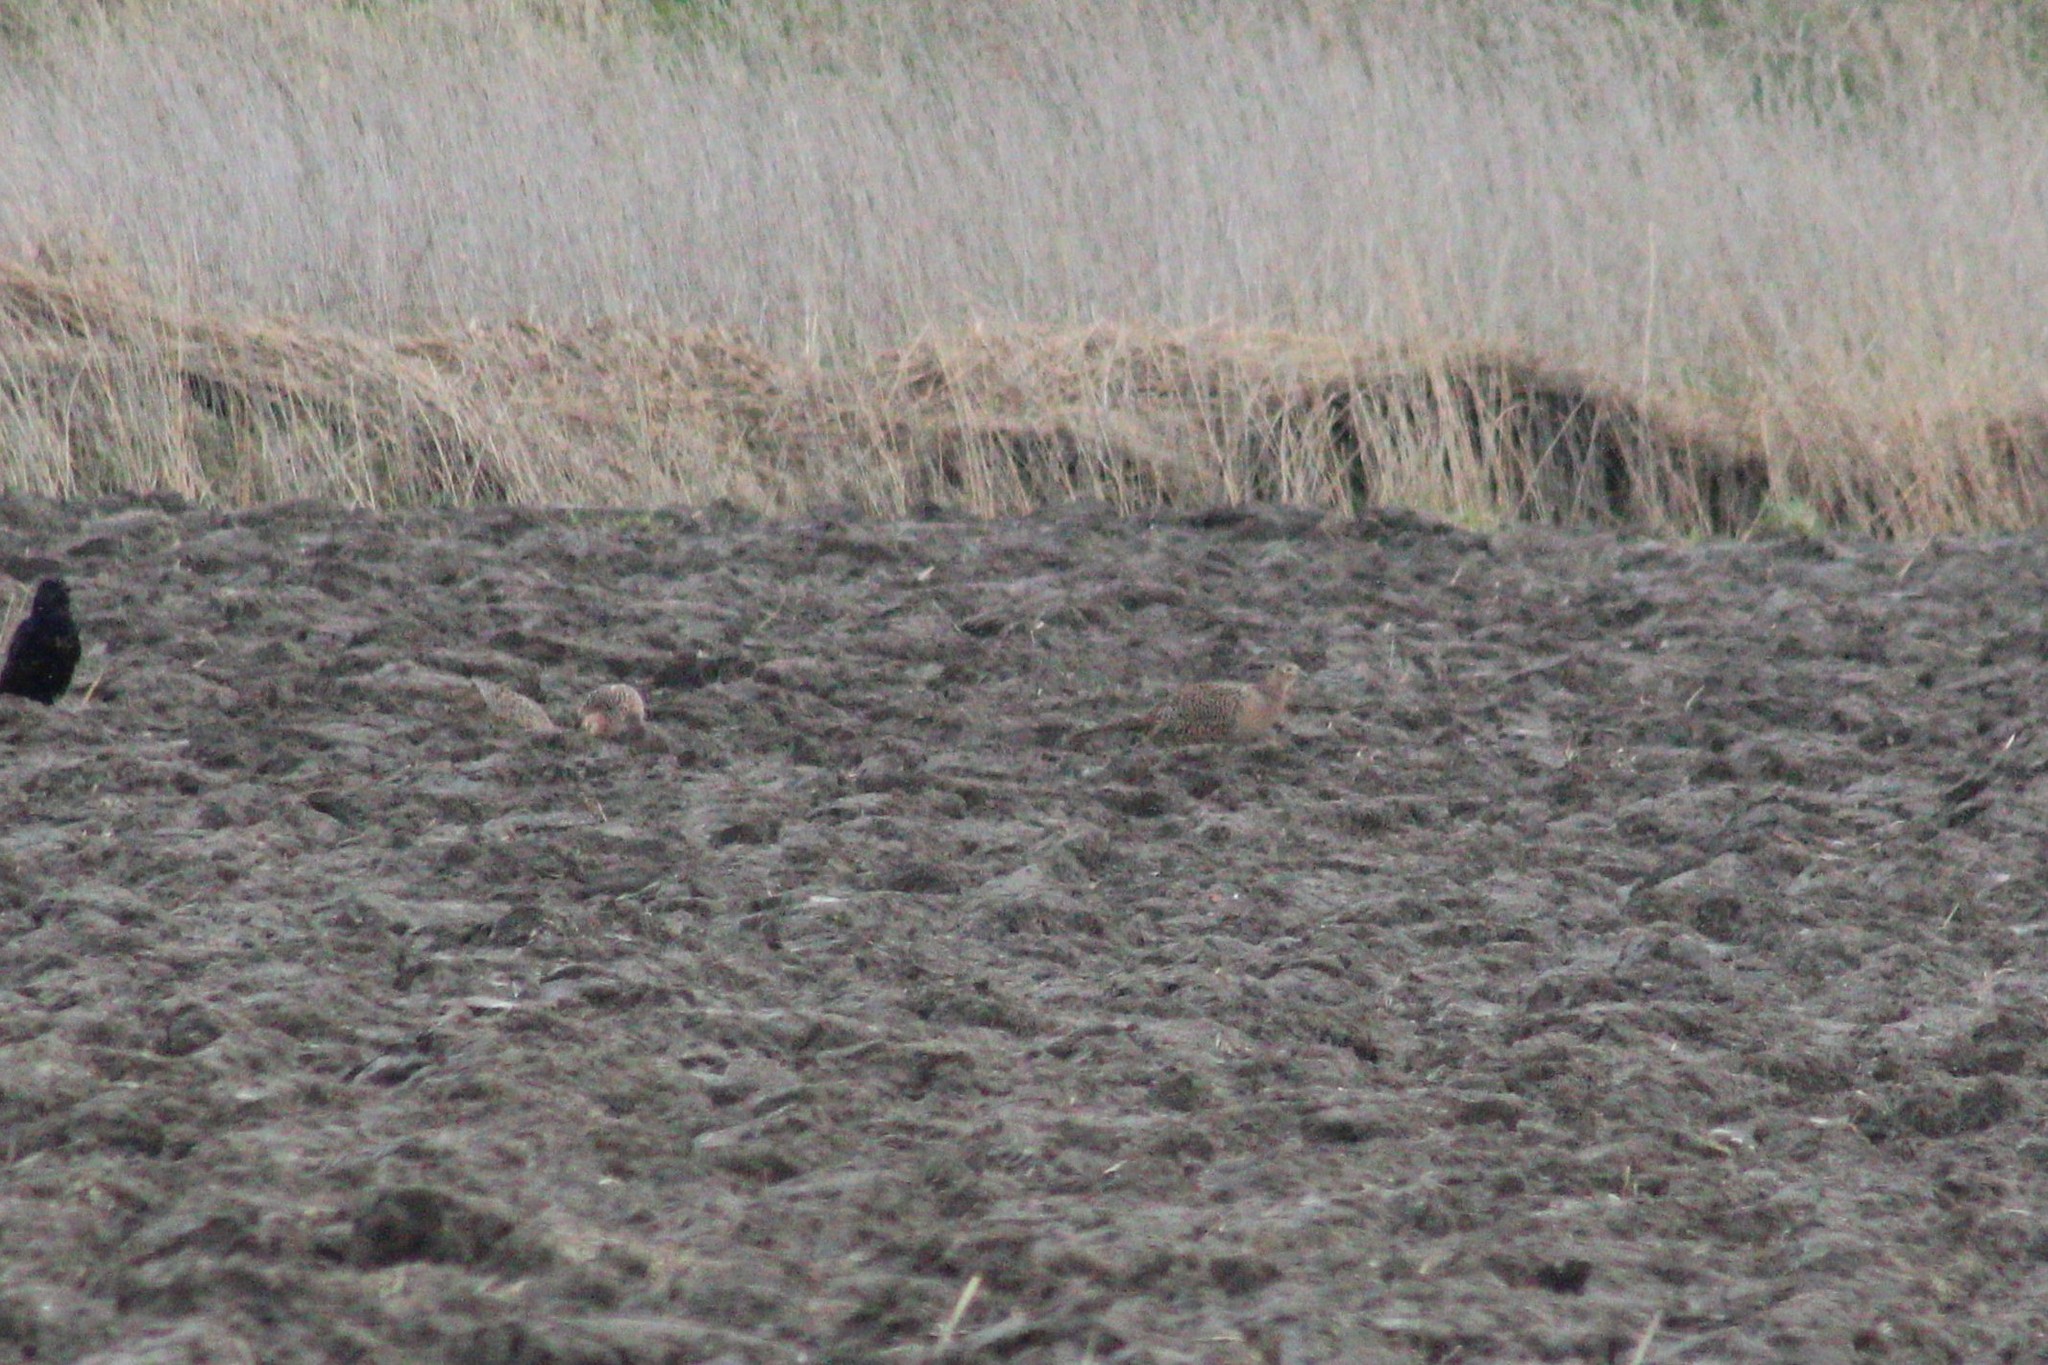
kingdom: Animalia
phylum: Chordata
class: Aves
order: Galliformes
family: Phasianidae
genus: Phasianus
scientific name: Phasianus colchicus
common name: Common pheasant
